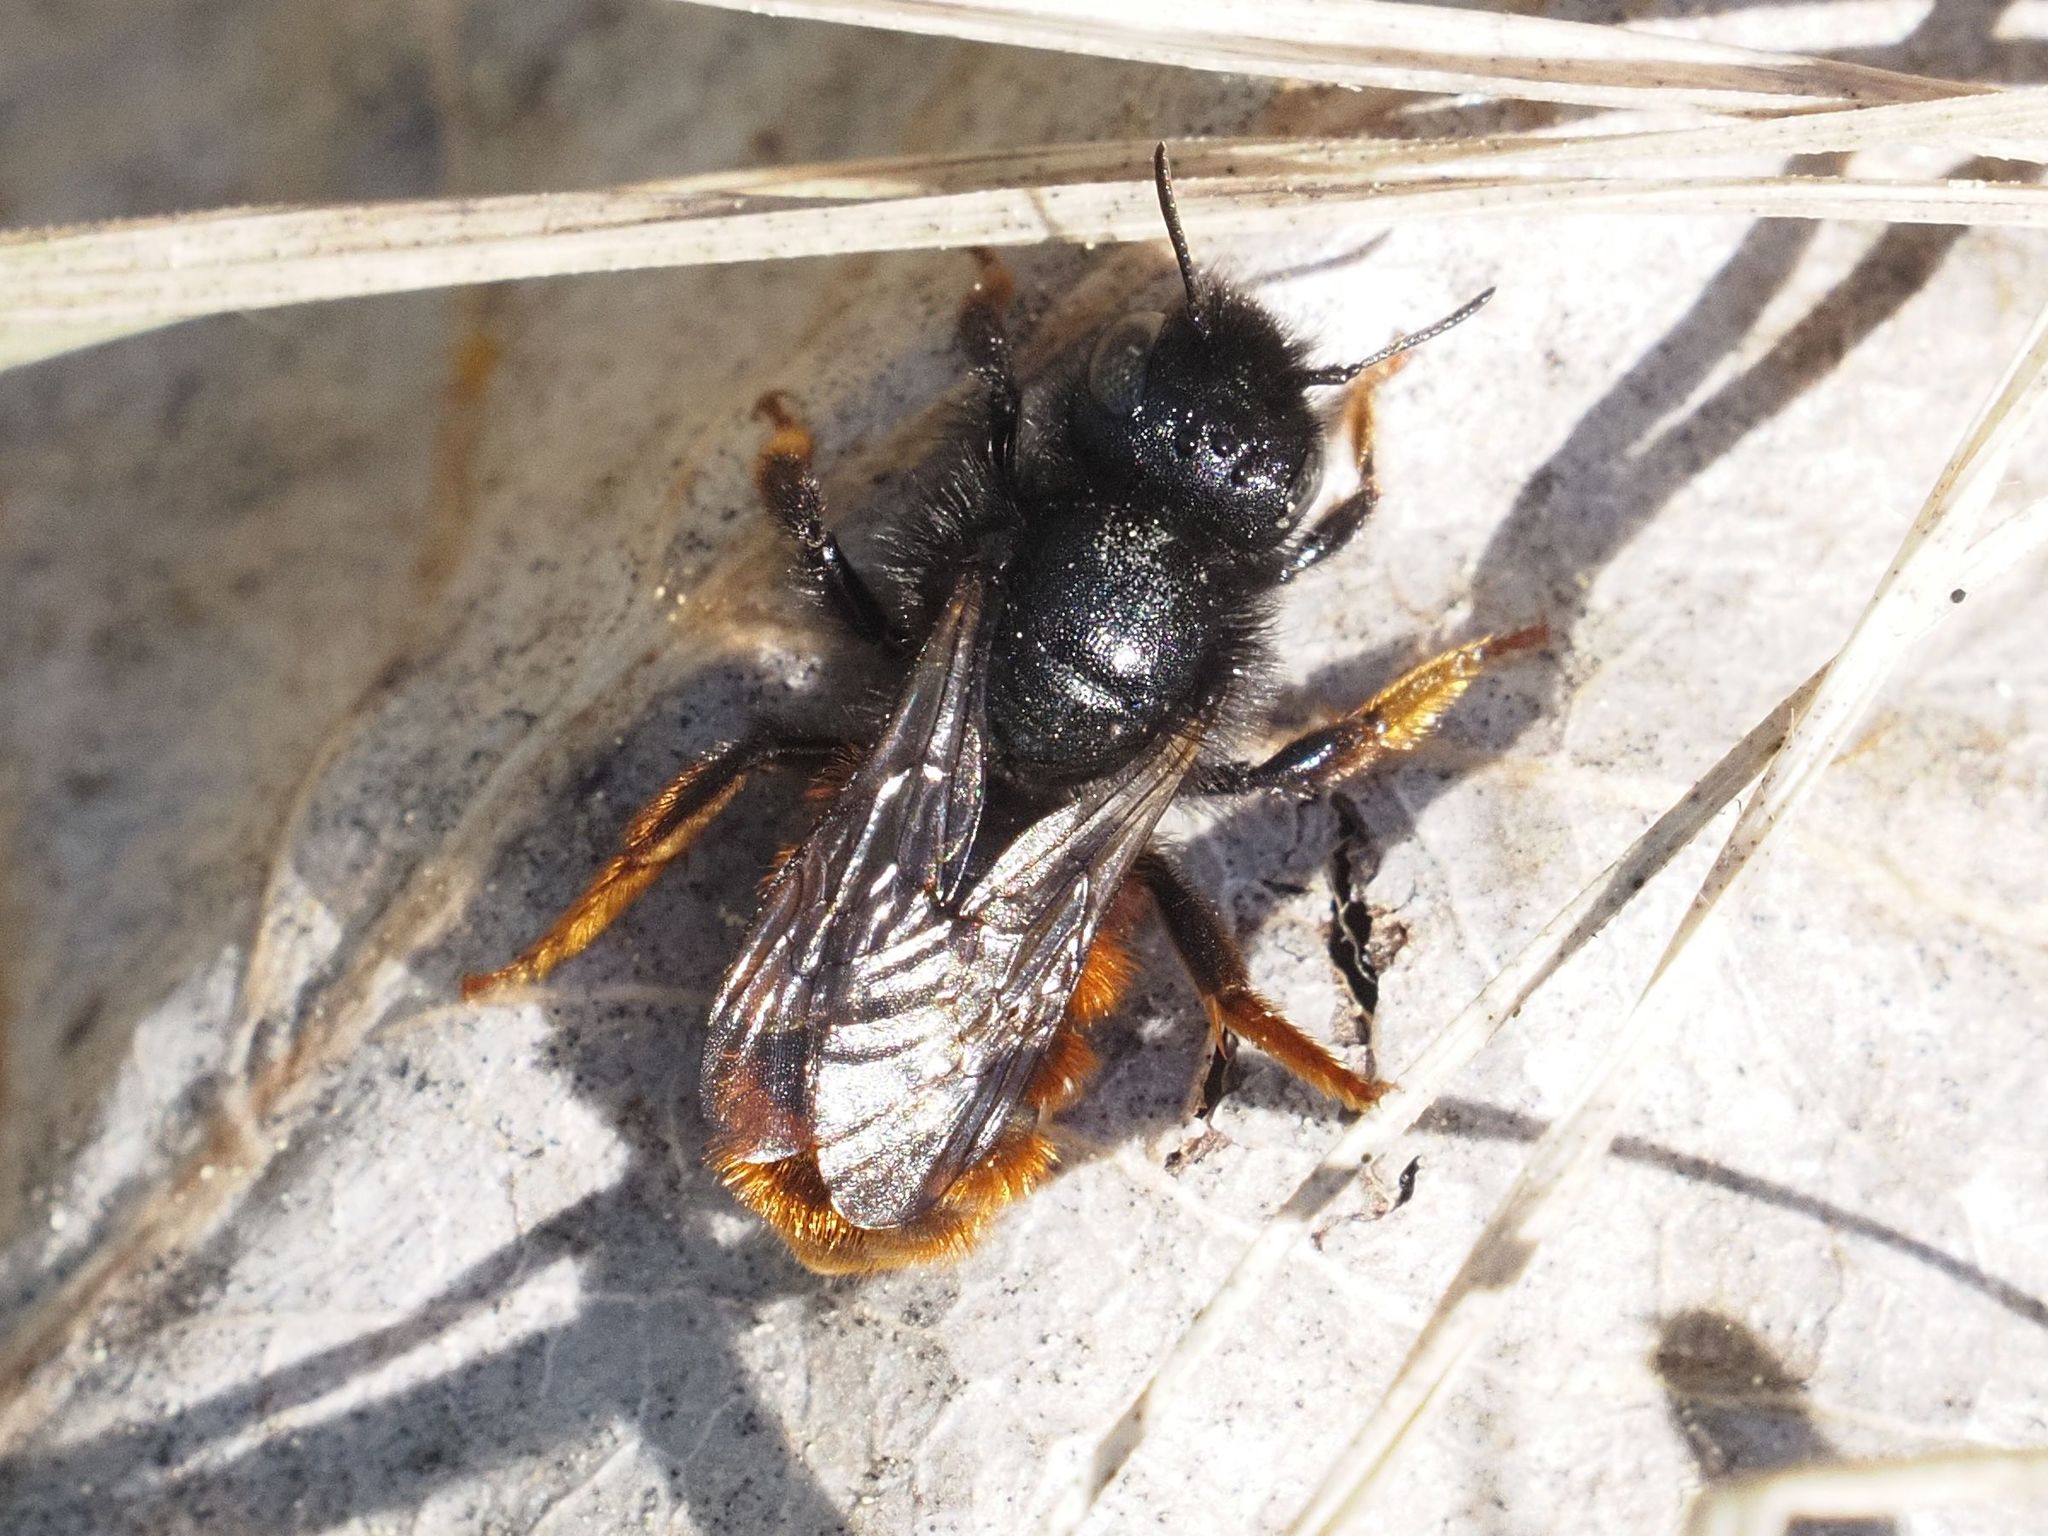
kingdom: Animalia
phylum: Arthropoda
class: Insecta
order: Hymenoptera
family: Megachilidae
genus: Osmia
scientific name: Osmia bicolor
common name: Red-tailed mason bee
